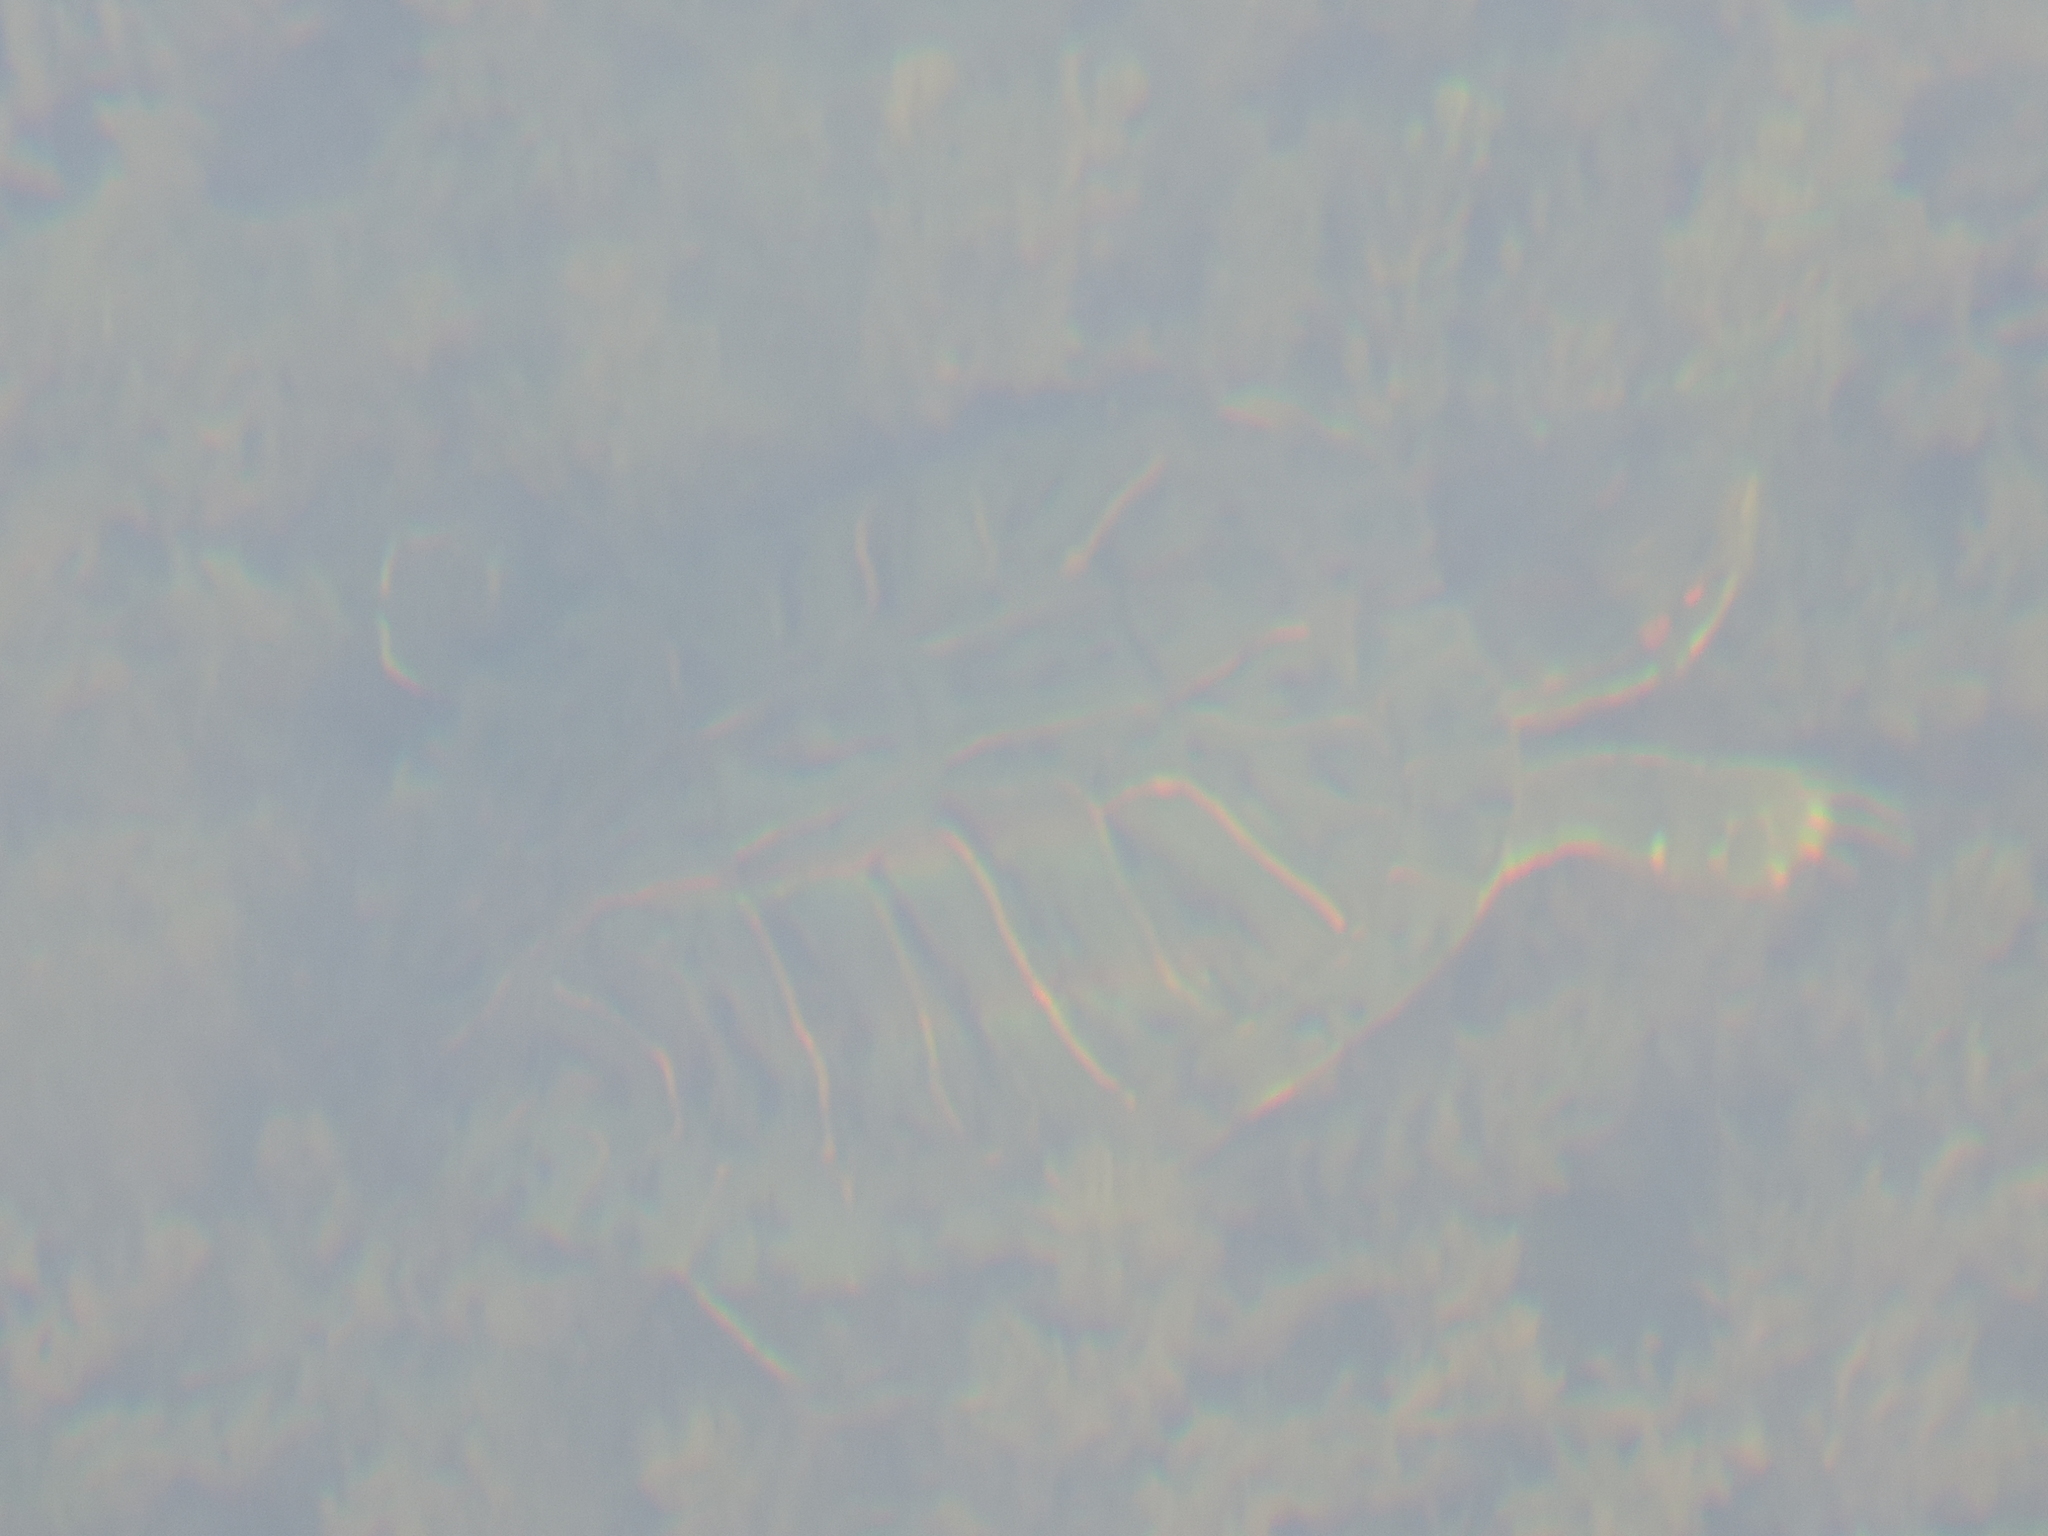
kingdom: Animalia
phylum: Chordata
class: Testudines
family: Emydidae
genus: Trachemys
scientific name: Trachemys scripta
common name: Slider
